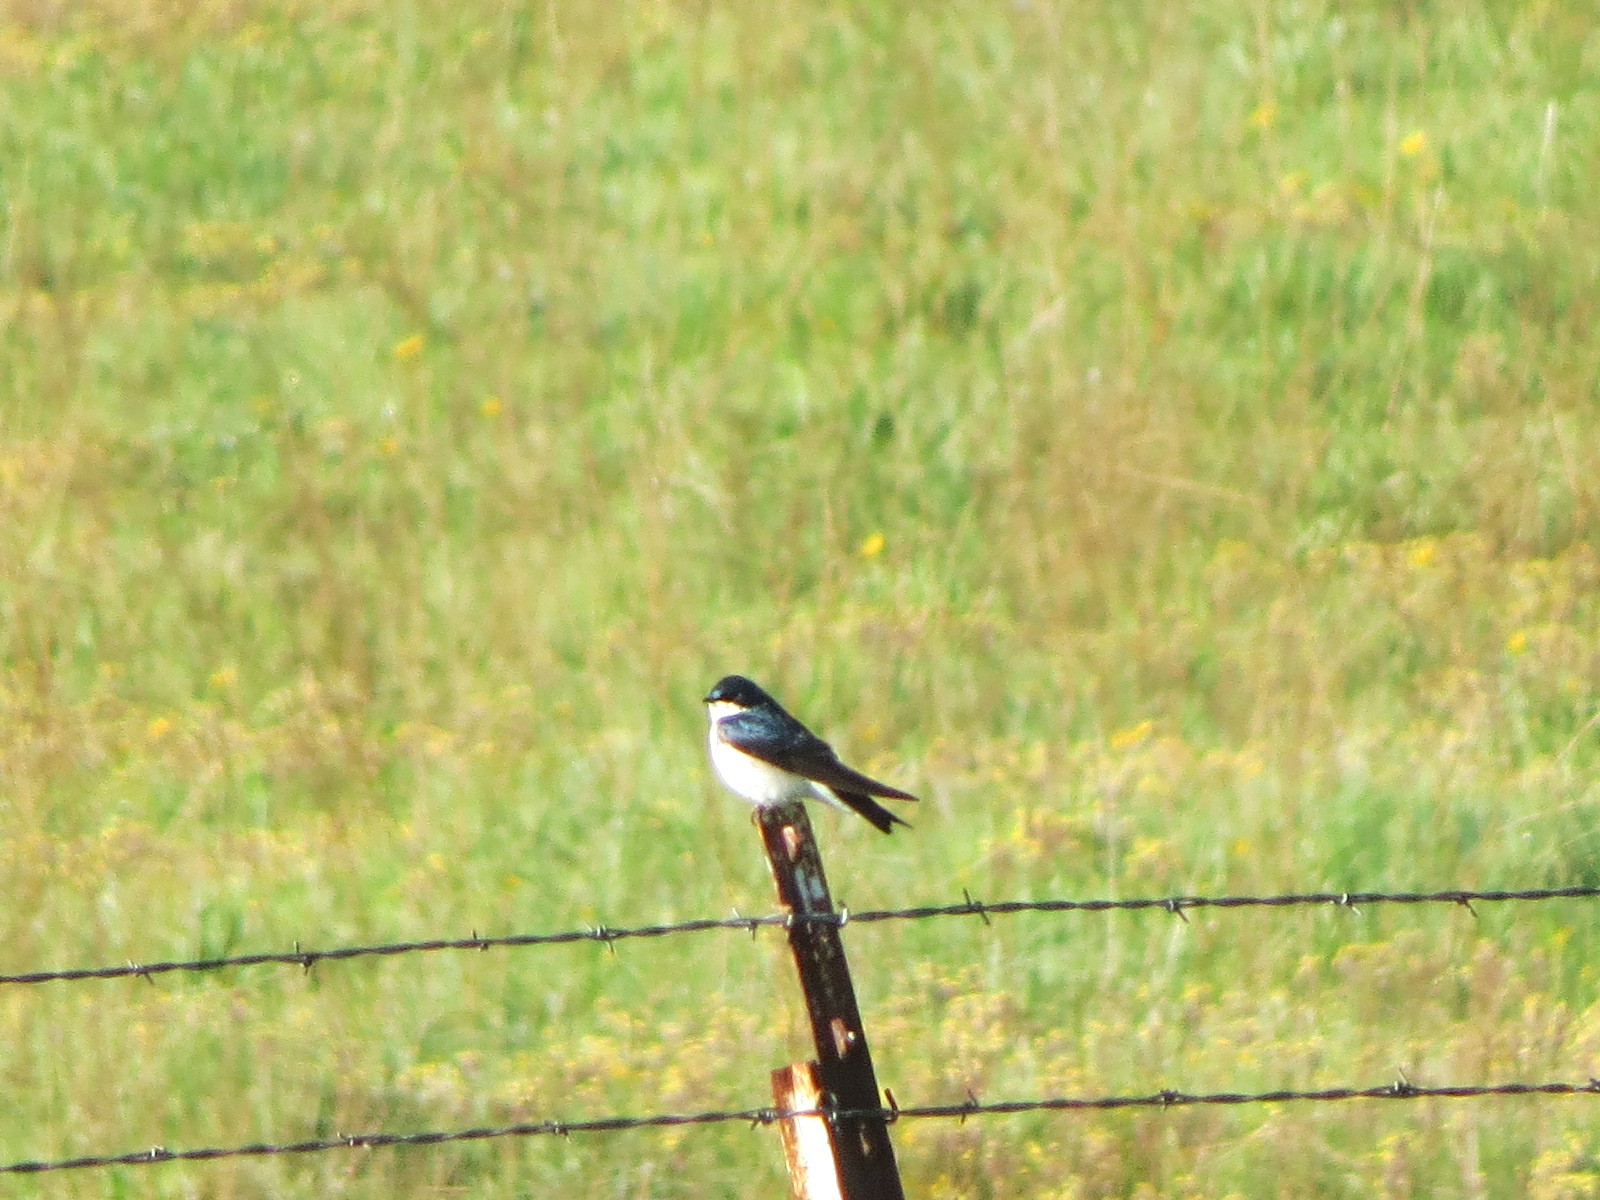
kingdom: Animalia
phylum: Chordata
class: Aves
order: Passeriformes
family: Hirundinidae
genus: Tachycineta
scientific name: Tachycineta bicolor
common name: Tree swallow
